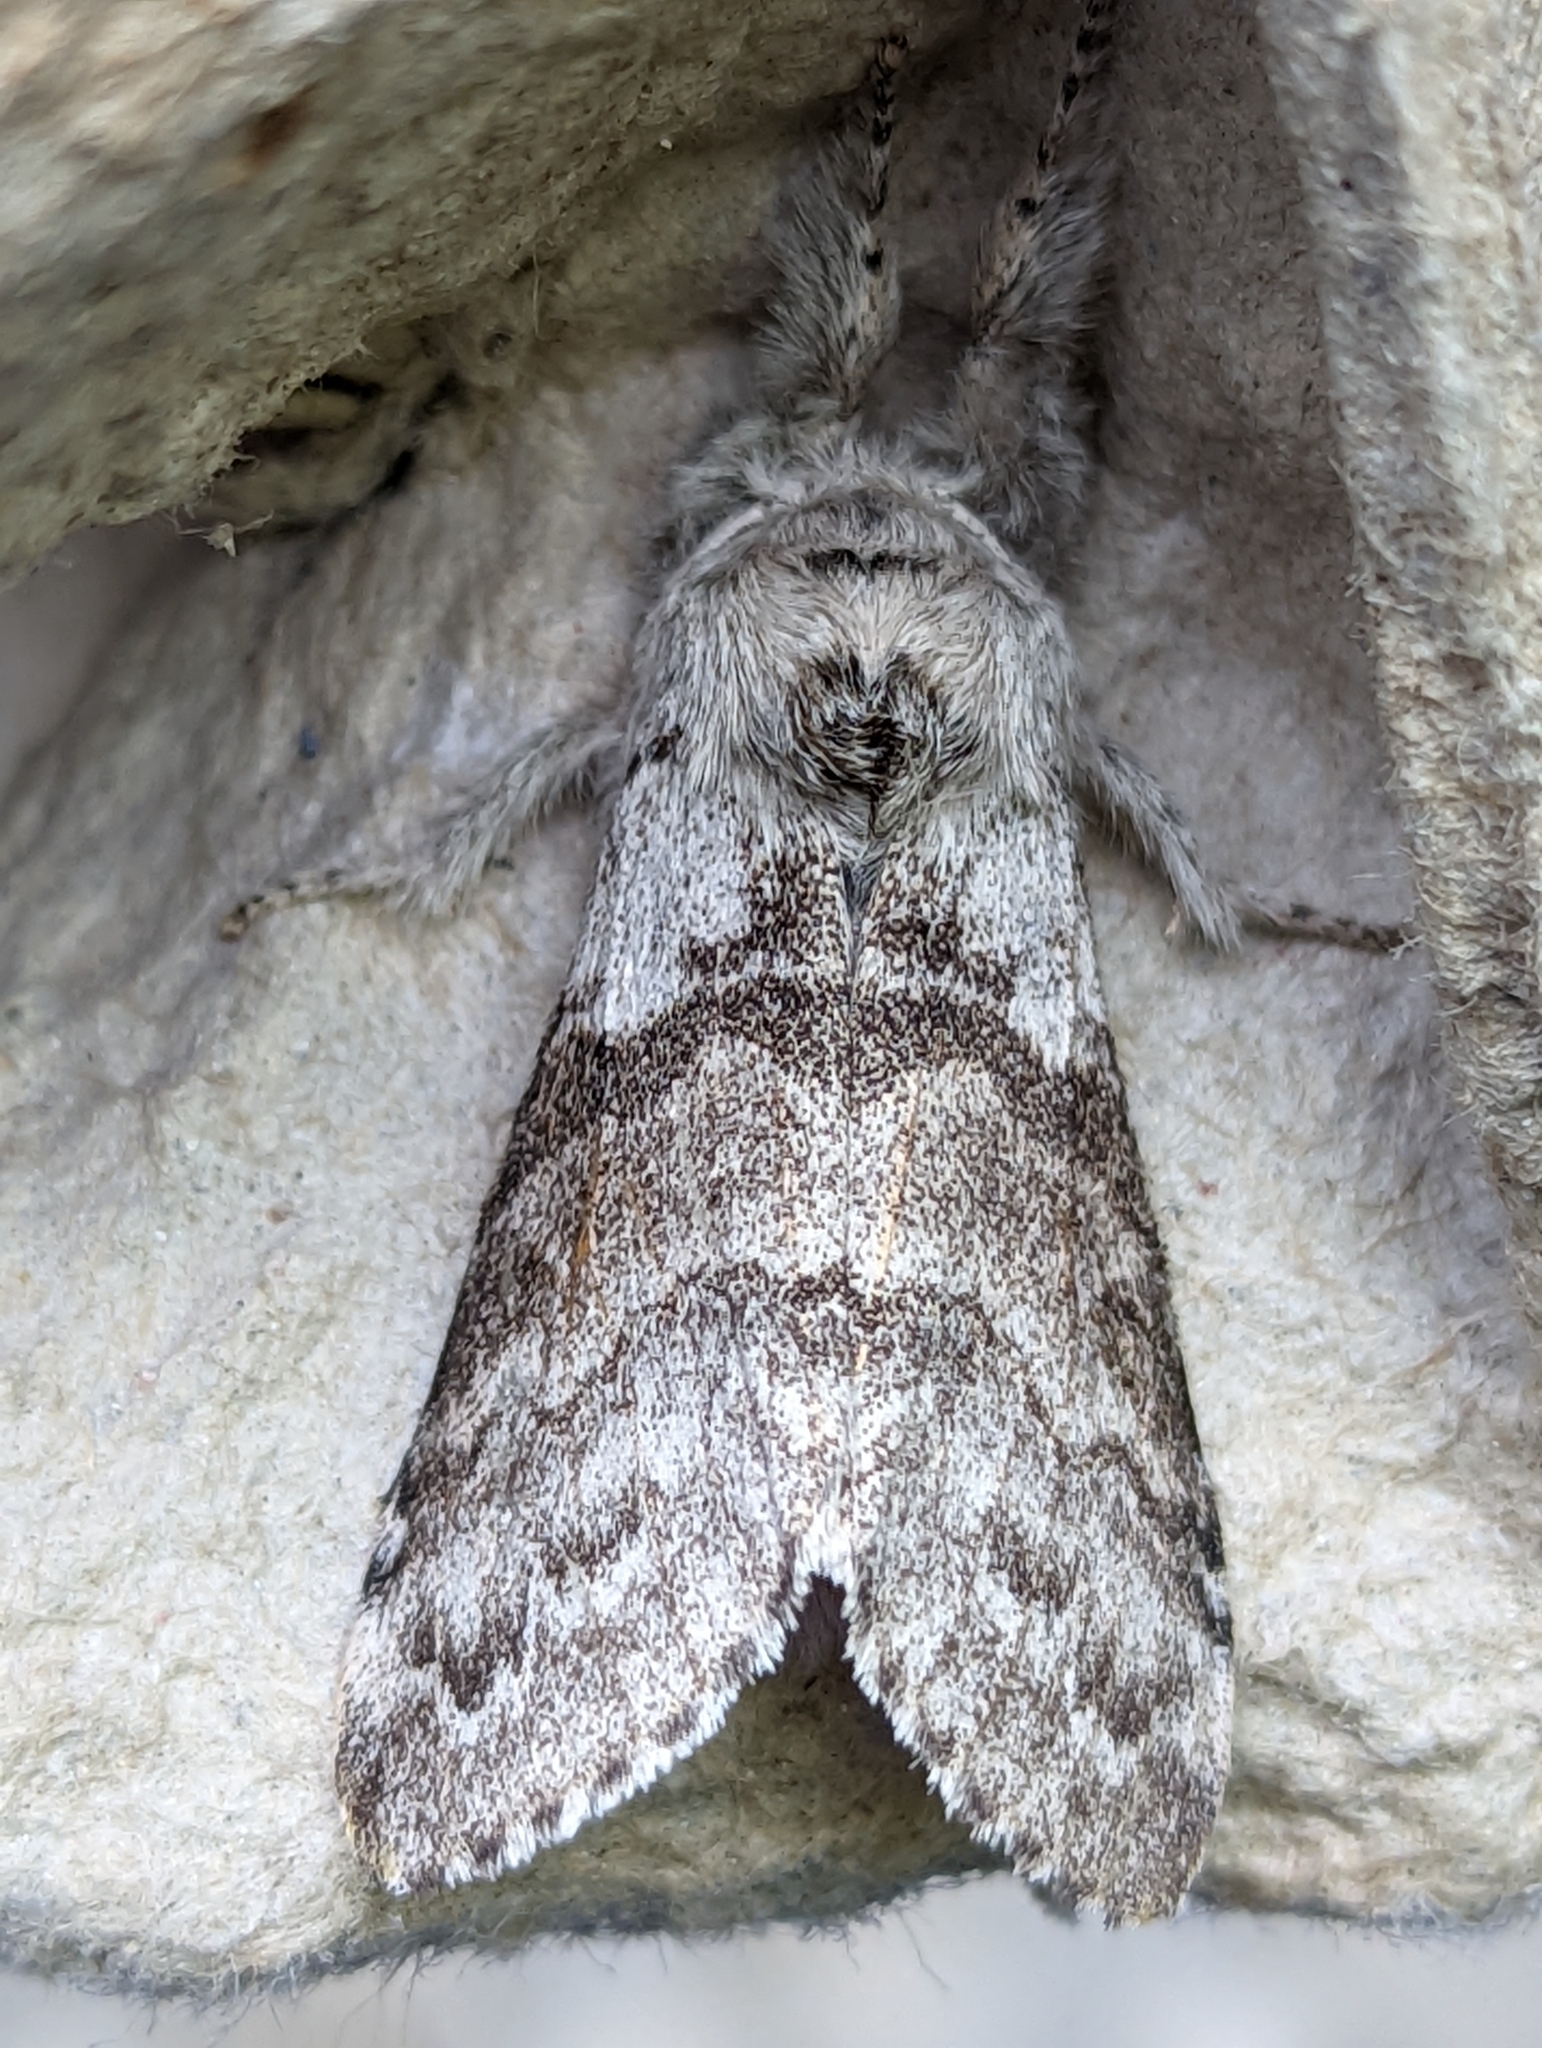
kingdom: Animalia
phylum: Arthropoda
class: Insecta
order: Lepidoptera
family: Erebidae
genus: Calliteara
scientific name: Calliteara pudibunda
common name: Pale tussock
